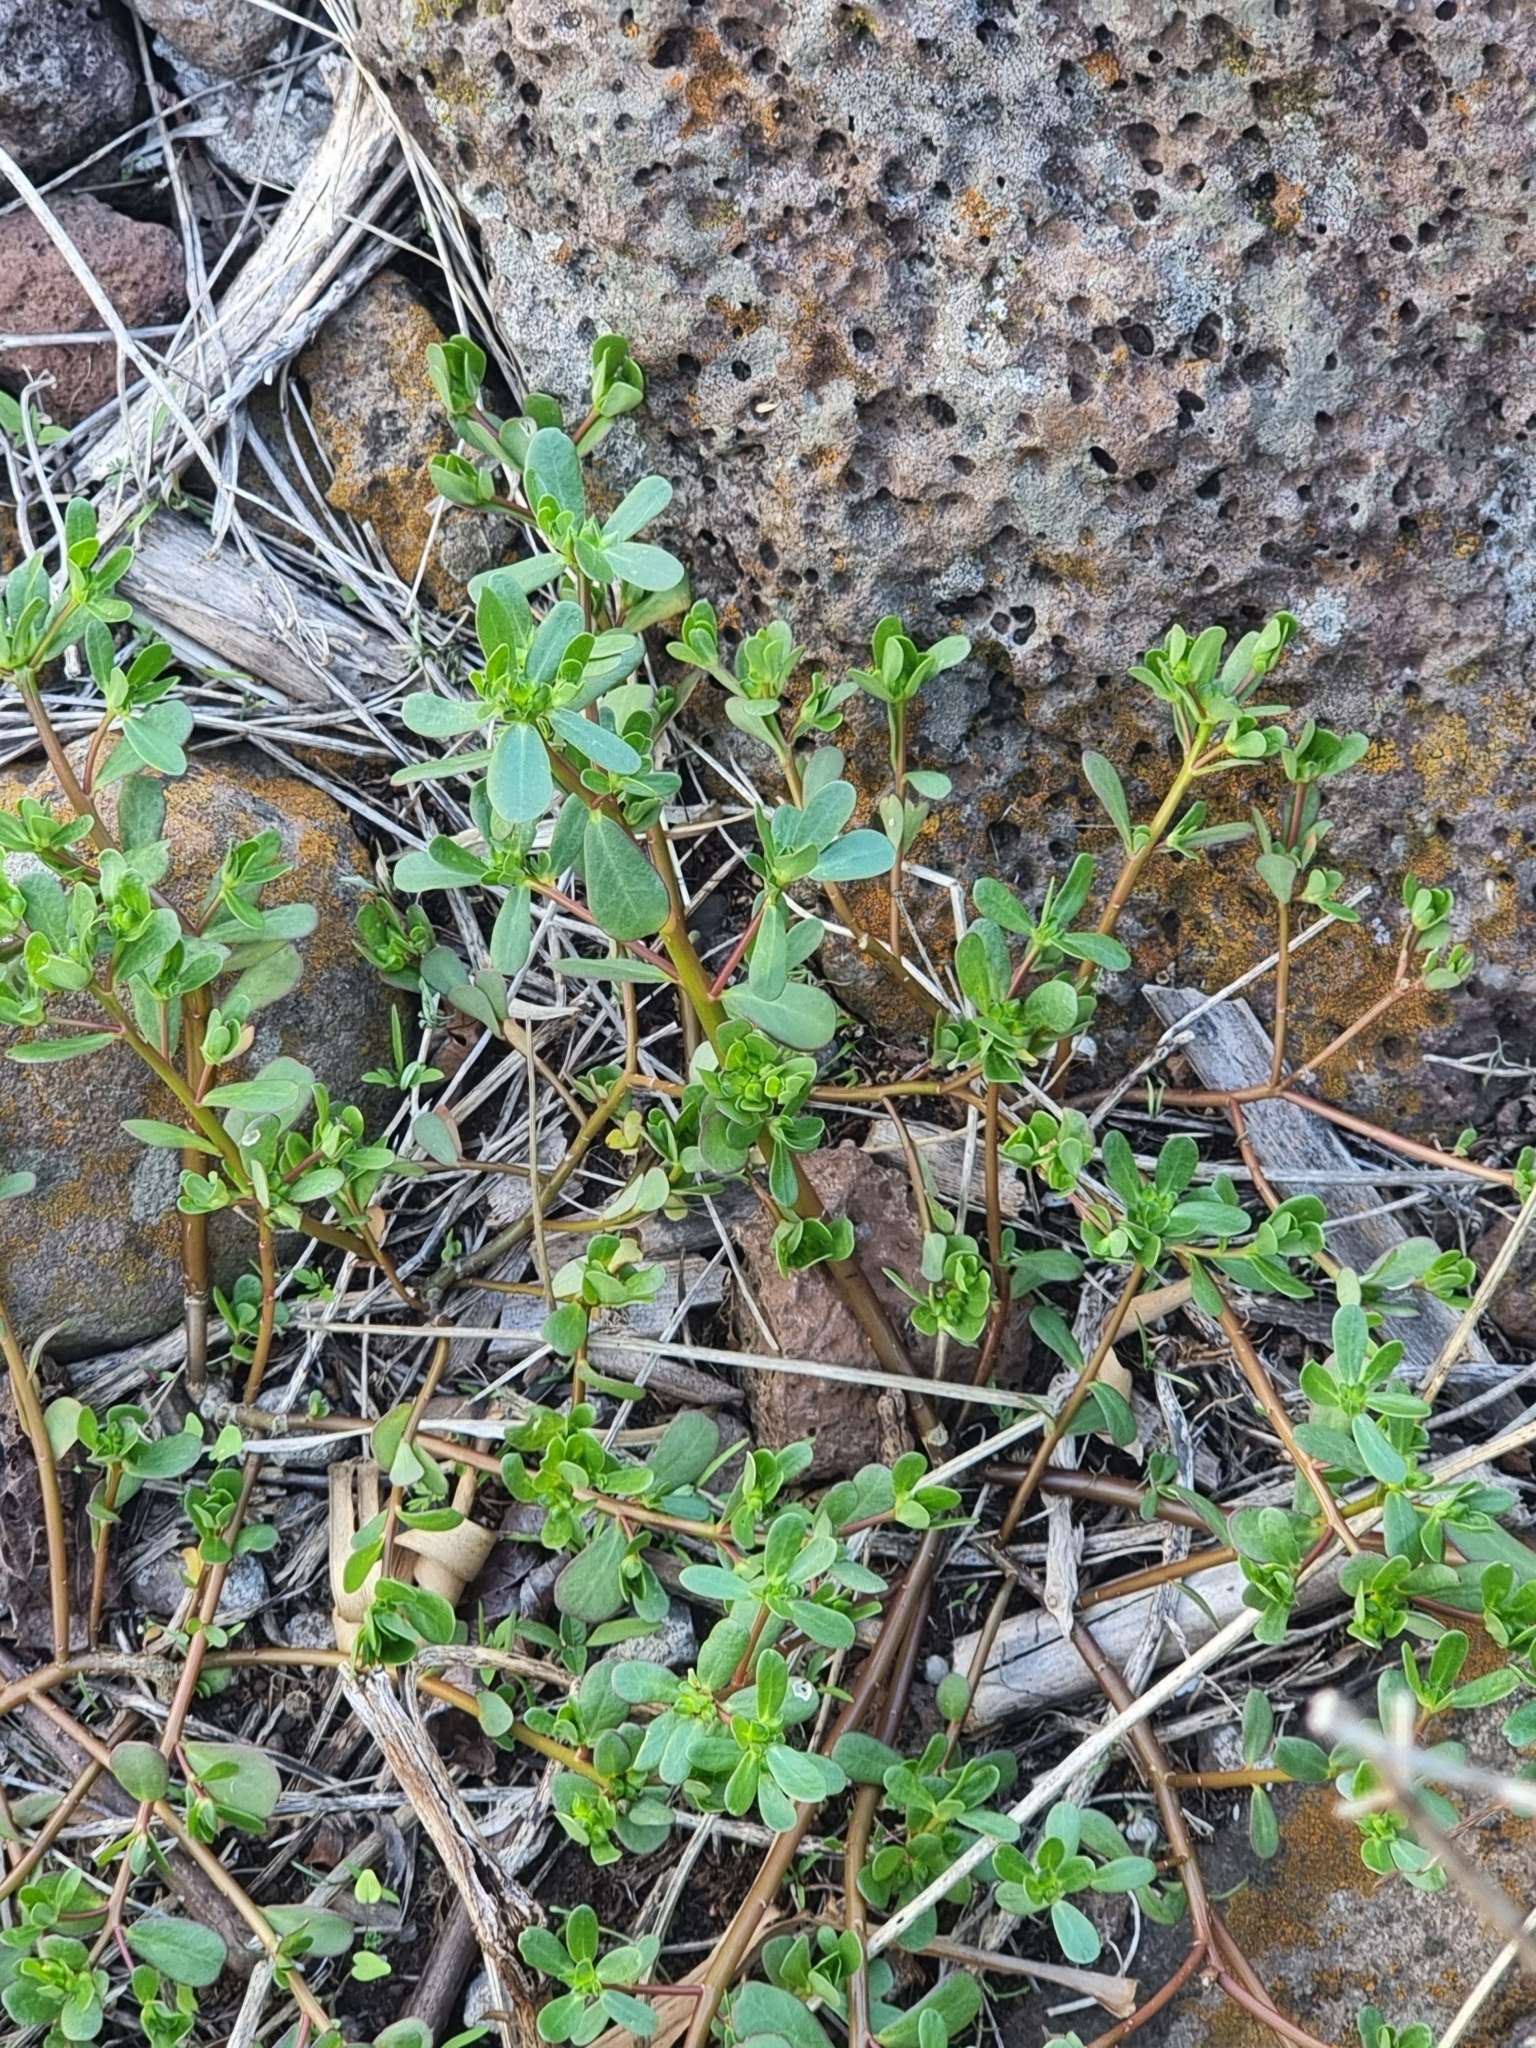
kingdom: Plantae
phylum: Tracheophyta
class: Magnoliopsida
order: Caryophyllales
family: Portulacaceae
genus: Portulaca
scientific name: Portulaca oleracea
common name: Common purslane
